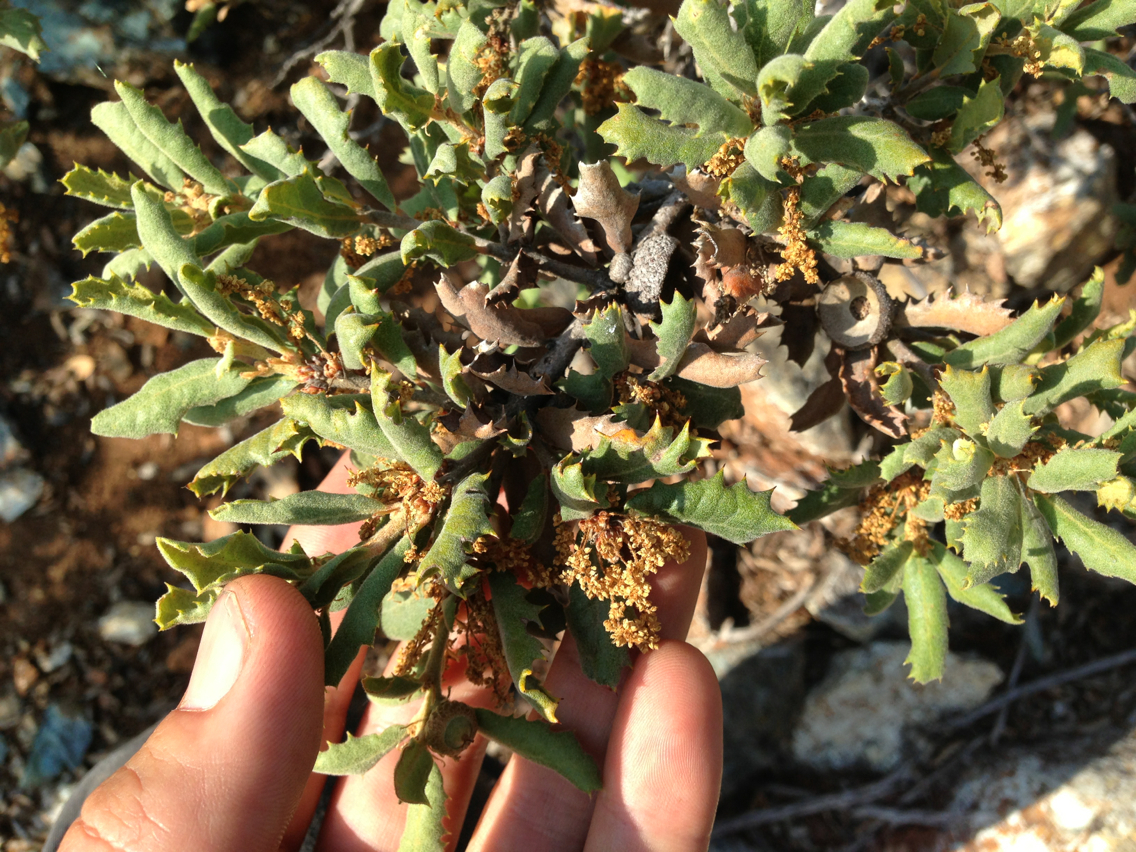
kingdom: Plantae
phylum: Tracheophyta
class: Magnoliopsida
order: Fagales
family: Fagaceae
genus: Quercus
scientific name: Quercus durata
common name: Leather oak
